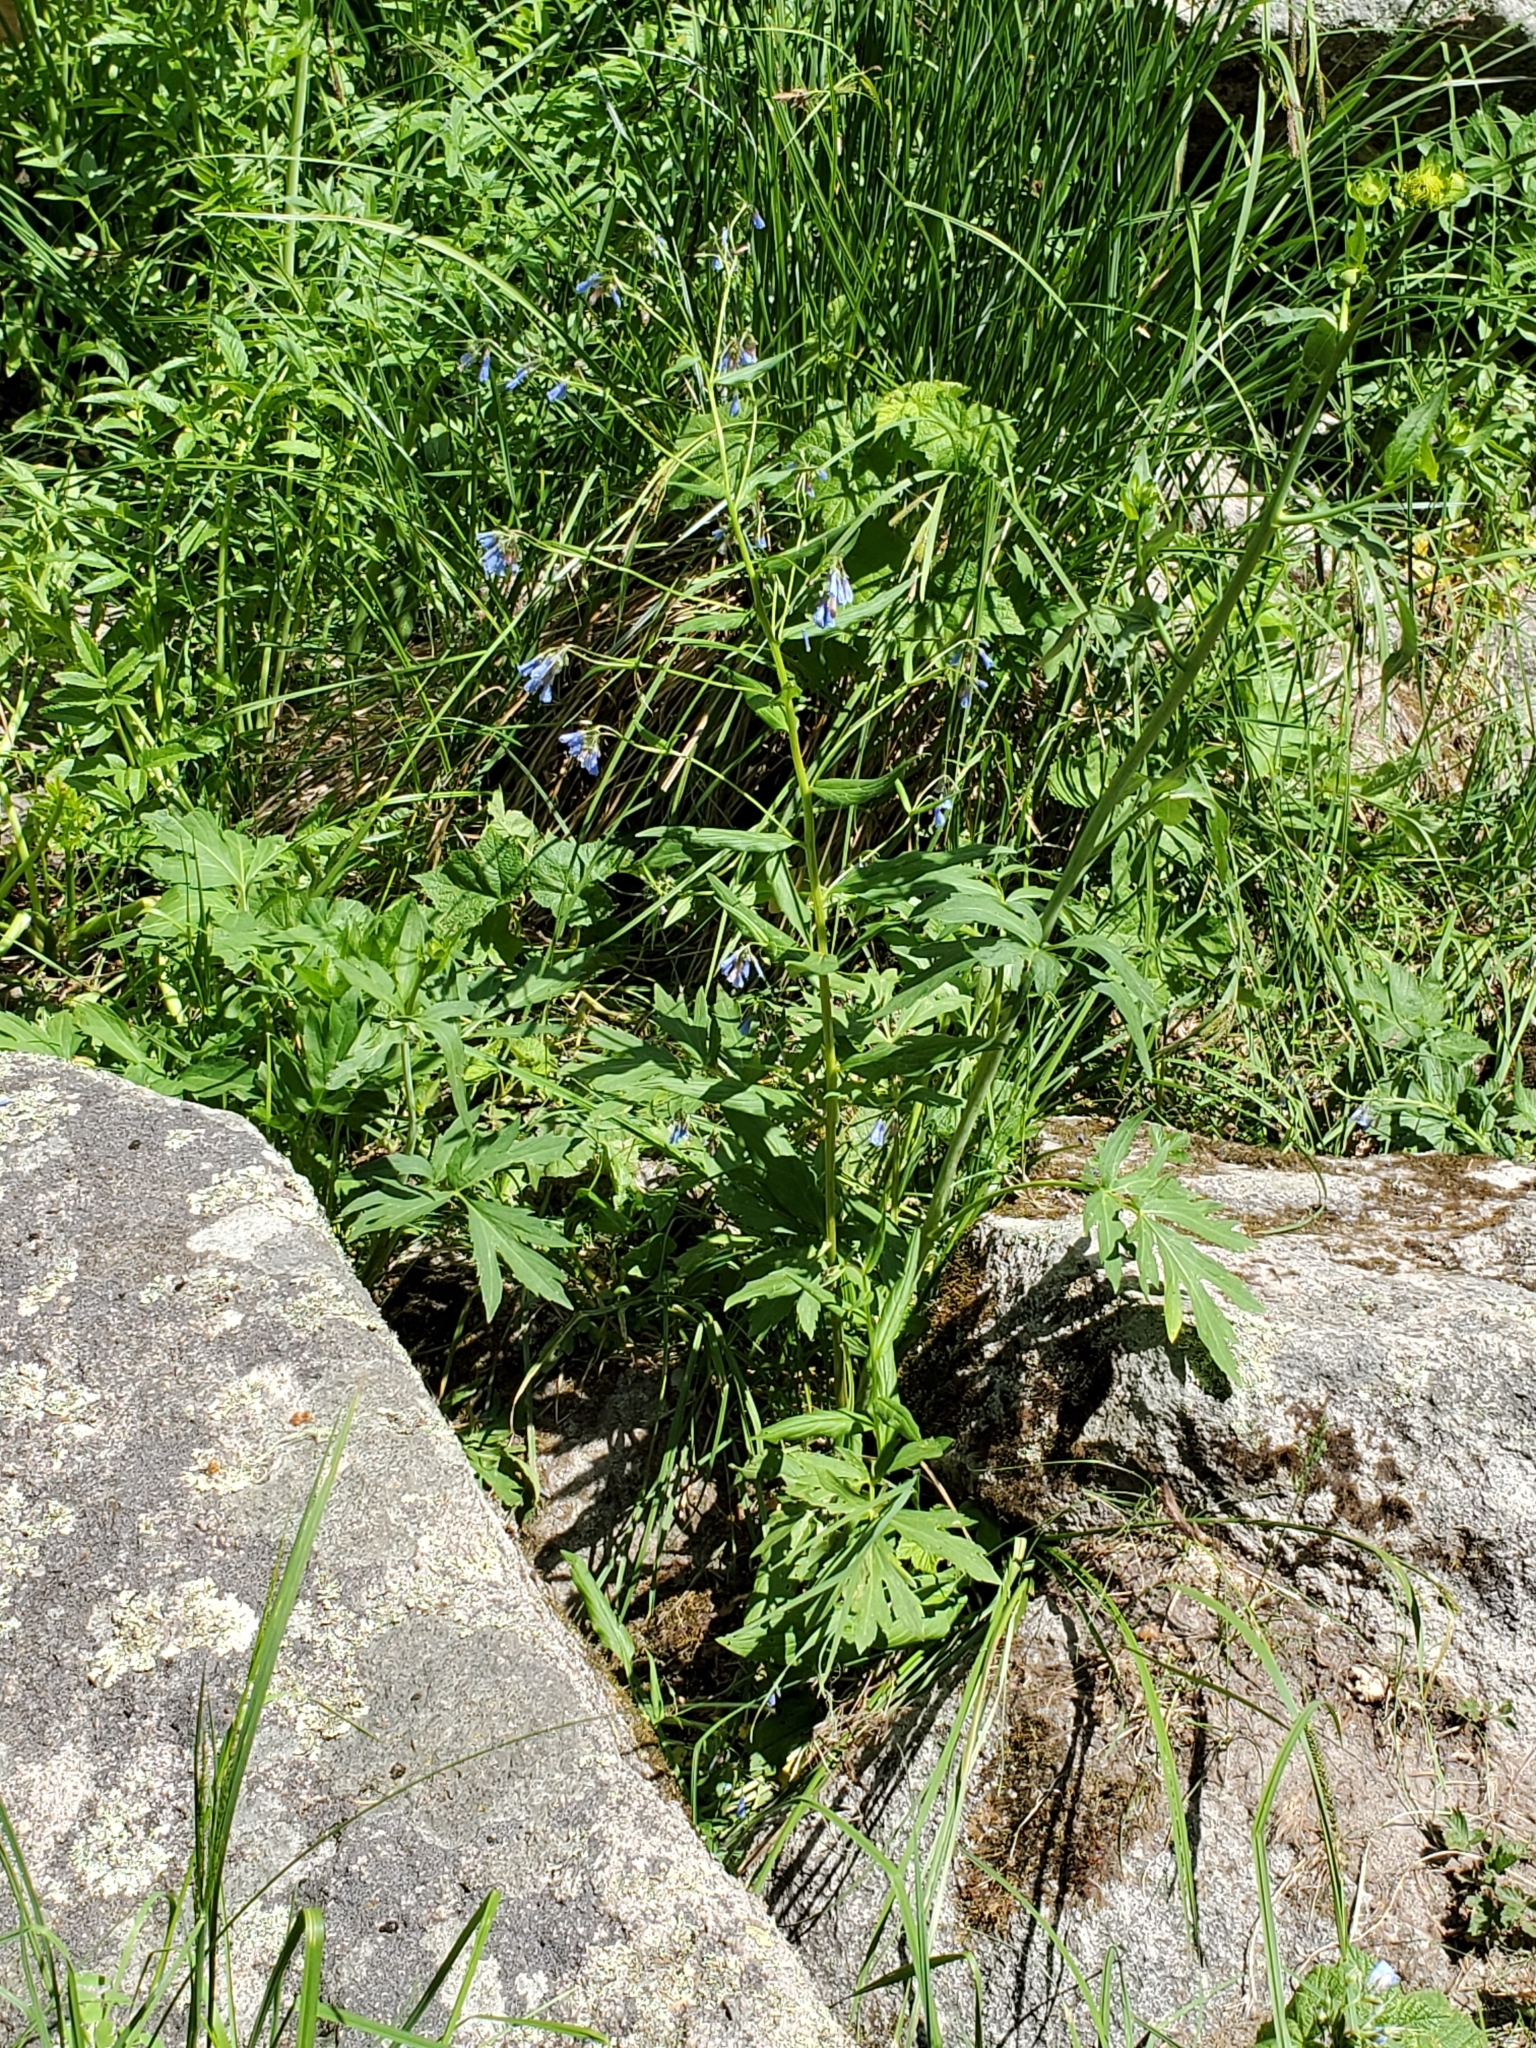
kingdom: Plantae
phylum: Tracheophyta
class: Magnoliopsida
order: Boraginales
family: Boraginaceae
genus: Mertensia
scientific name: Mertensia franciscana
